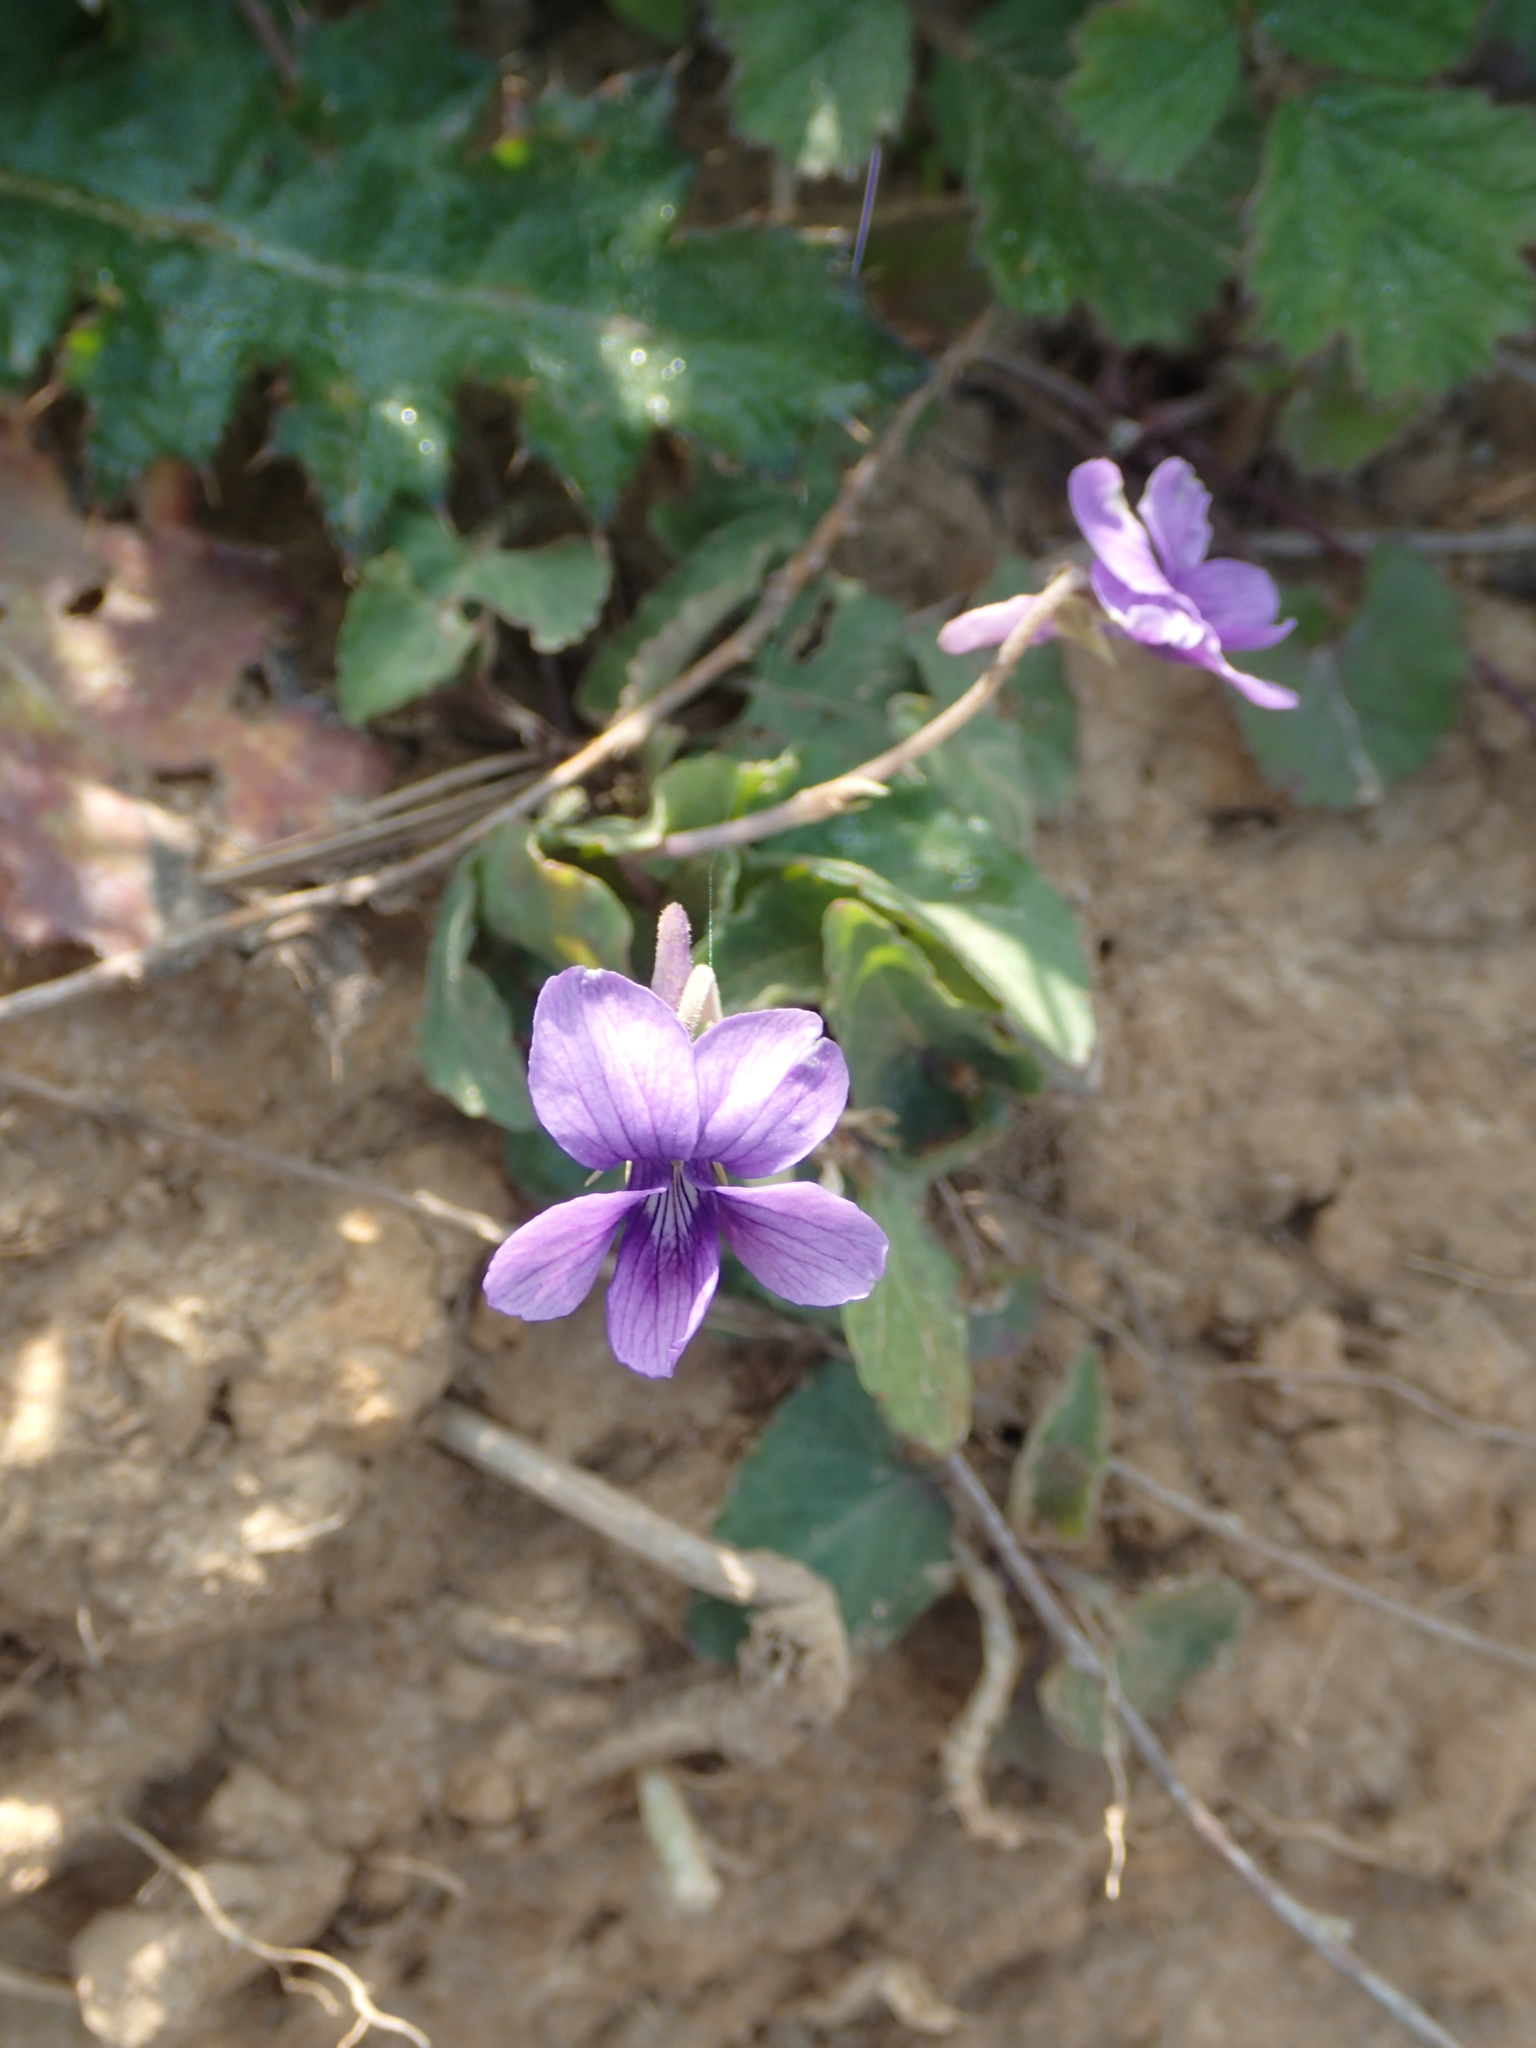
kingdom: Plantae
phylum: Tracheophyta
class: Magnoliopsida
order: Malpighiales
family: Violaceae
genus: Viola
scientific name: Viola
